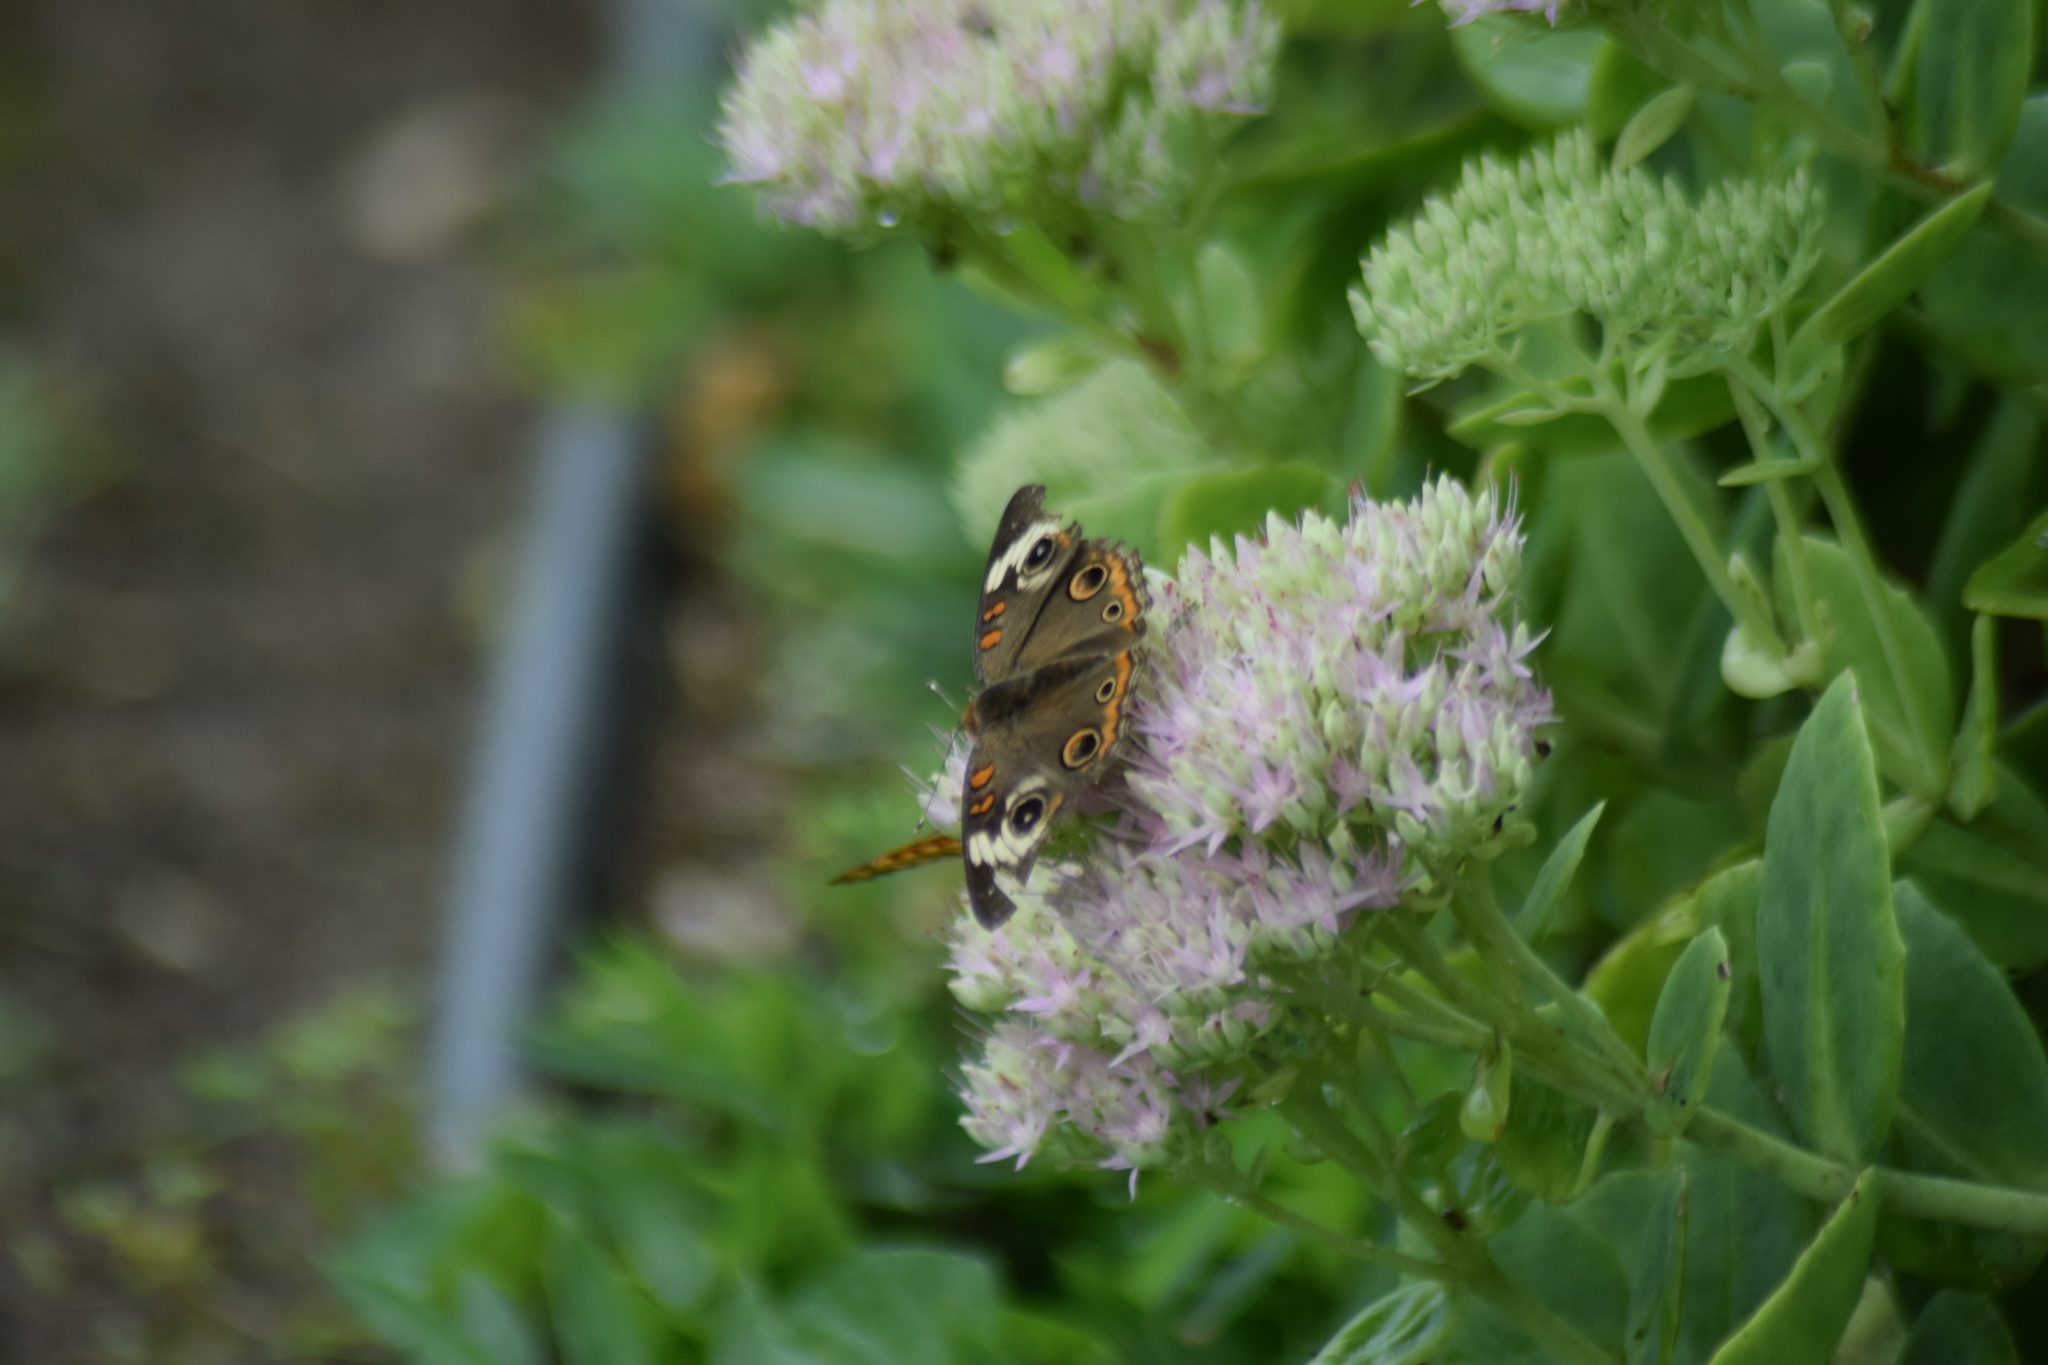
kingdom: Animalia
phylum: Arthropoda
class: Insecta
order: Lepidoptera
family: Nymphalidae
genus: Junonia
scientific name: Junonia coenia
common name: Common buckeye
